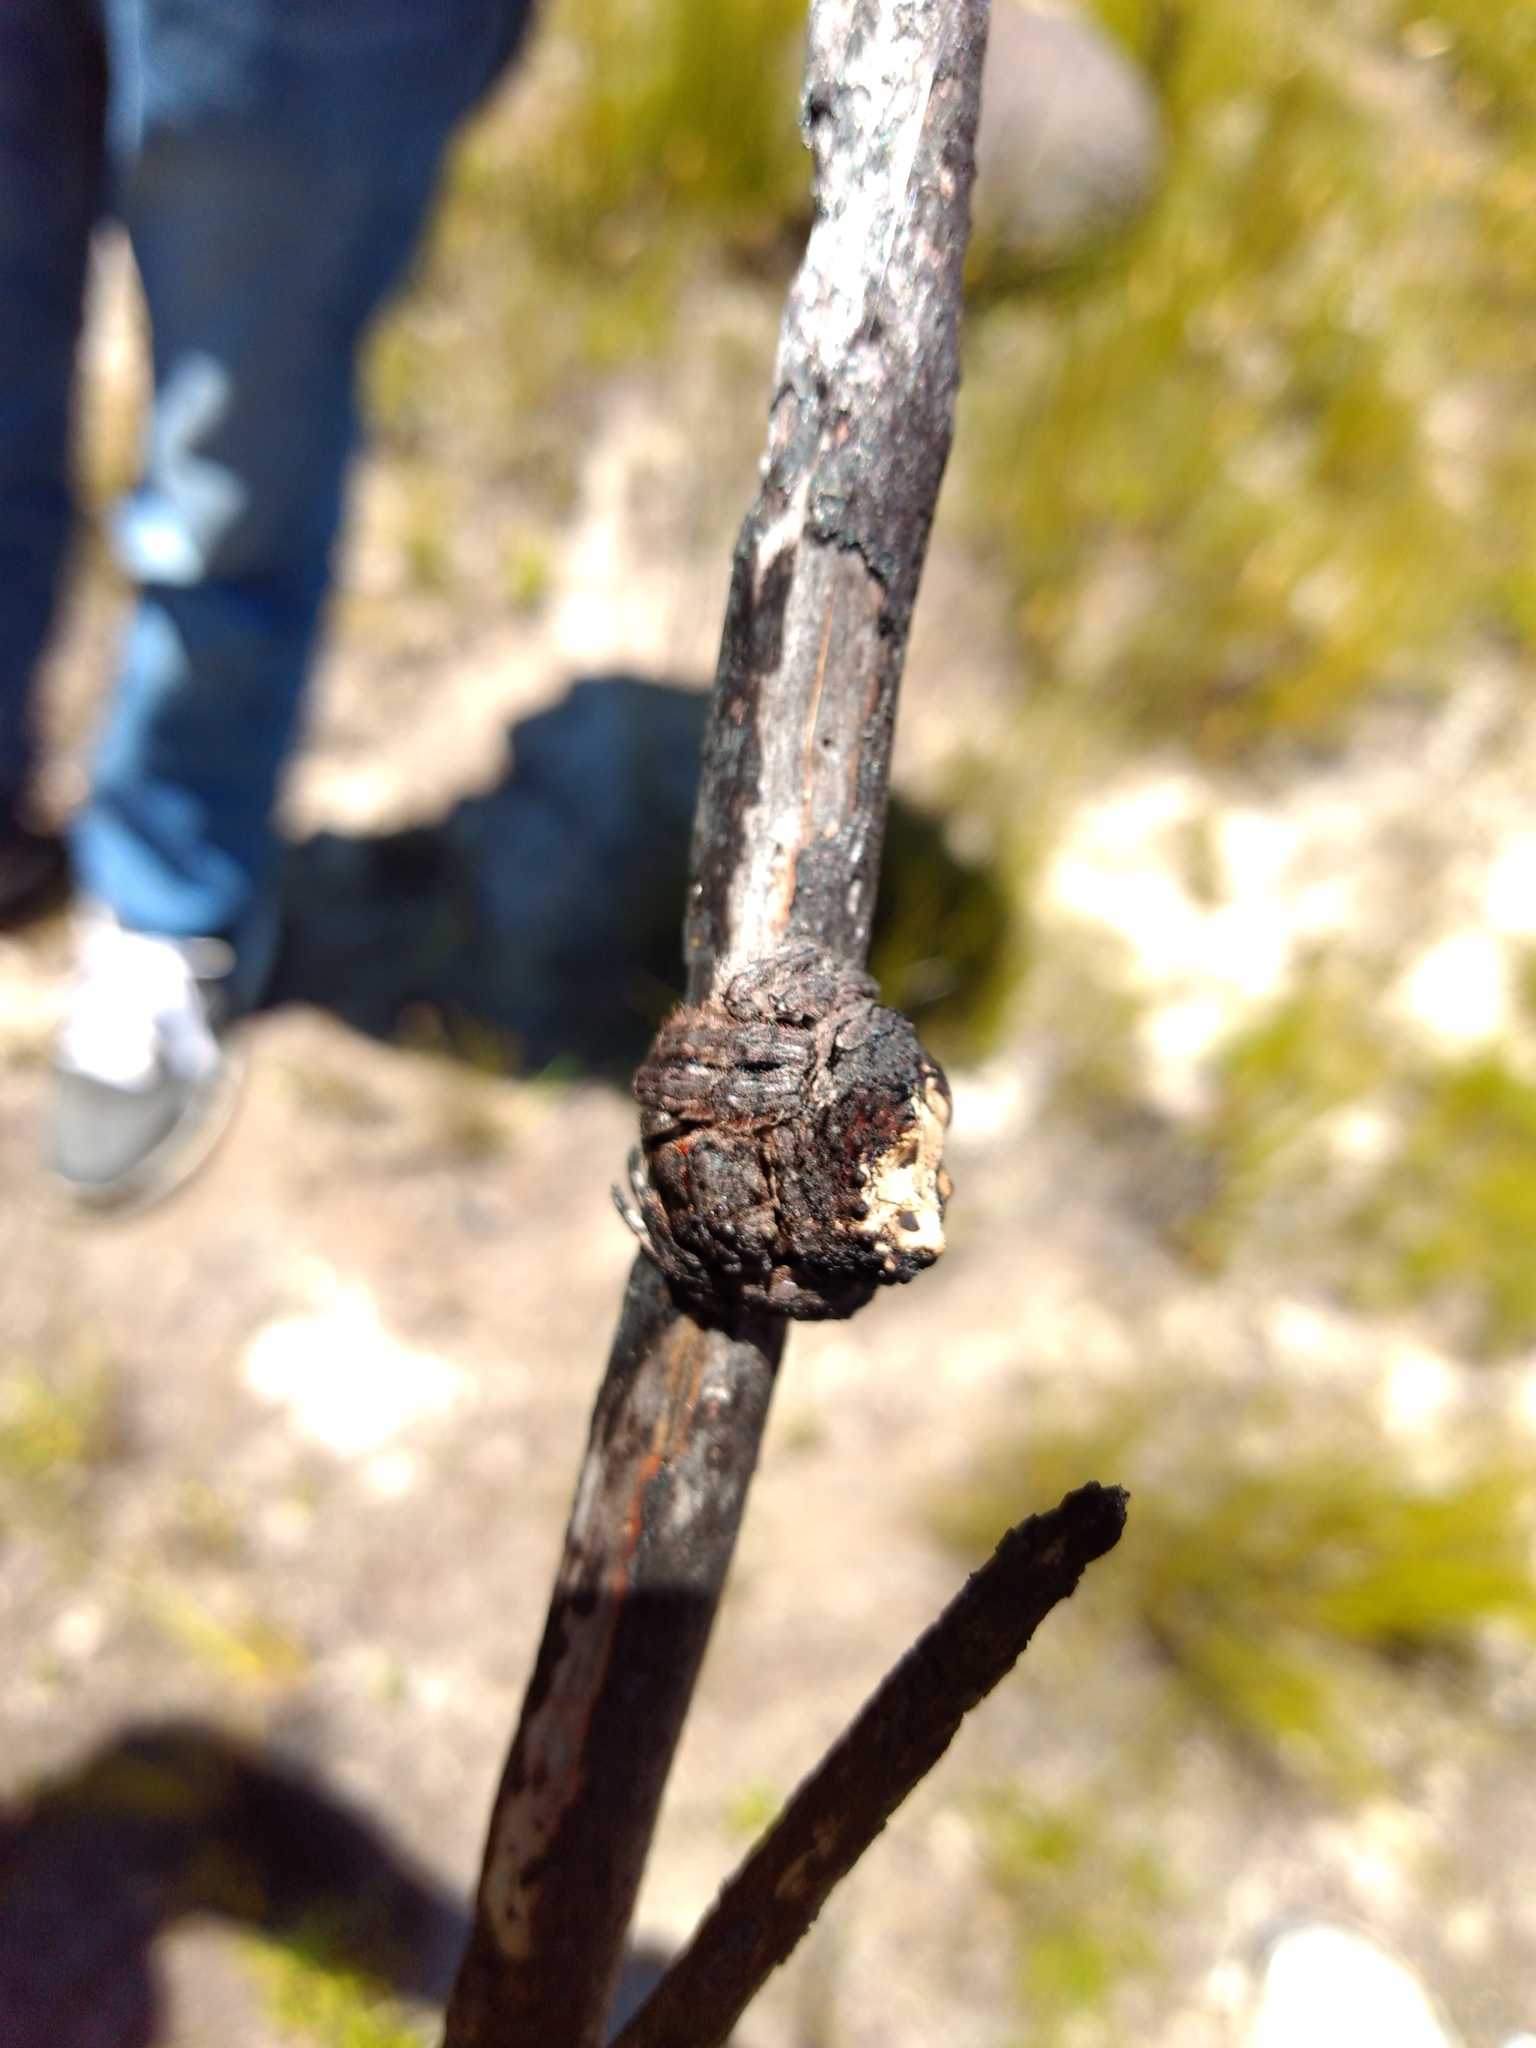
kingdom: Animalia
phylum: Arthropoda
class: Arachnida
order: Araneae
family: Araneidae
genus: Caerostris
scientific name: Caerostris corticosa
